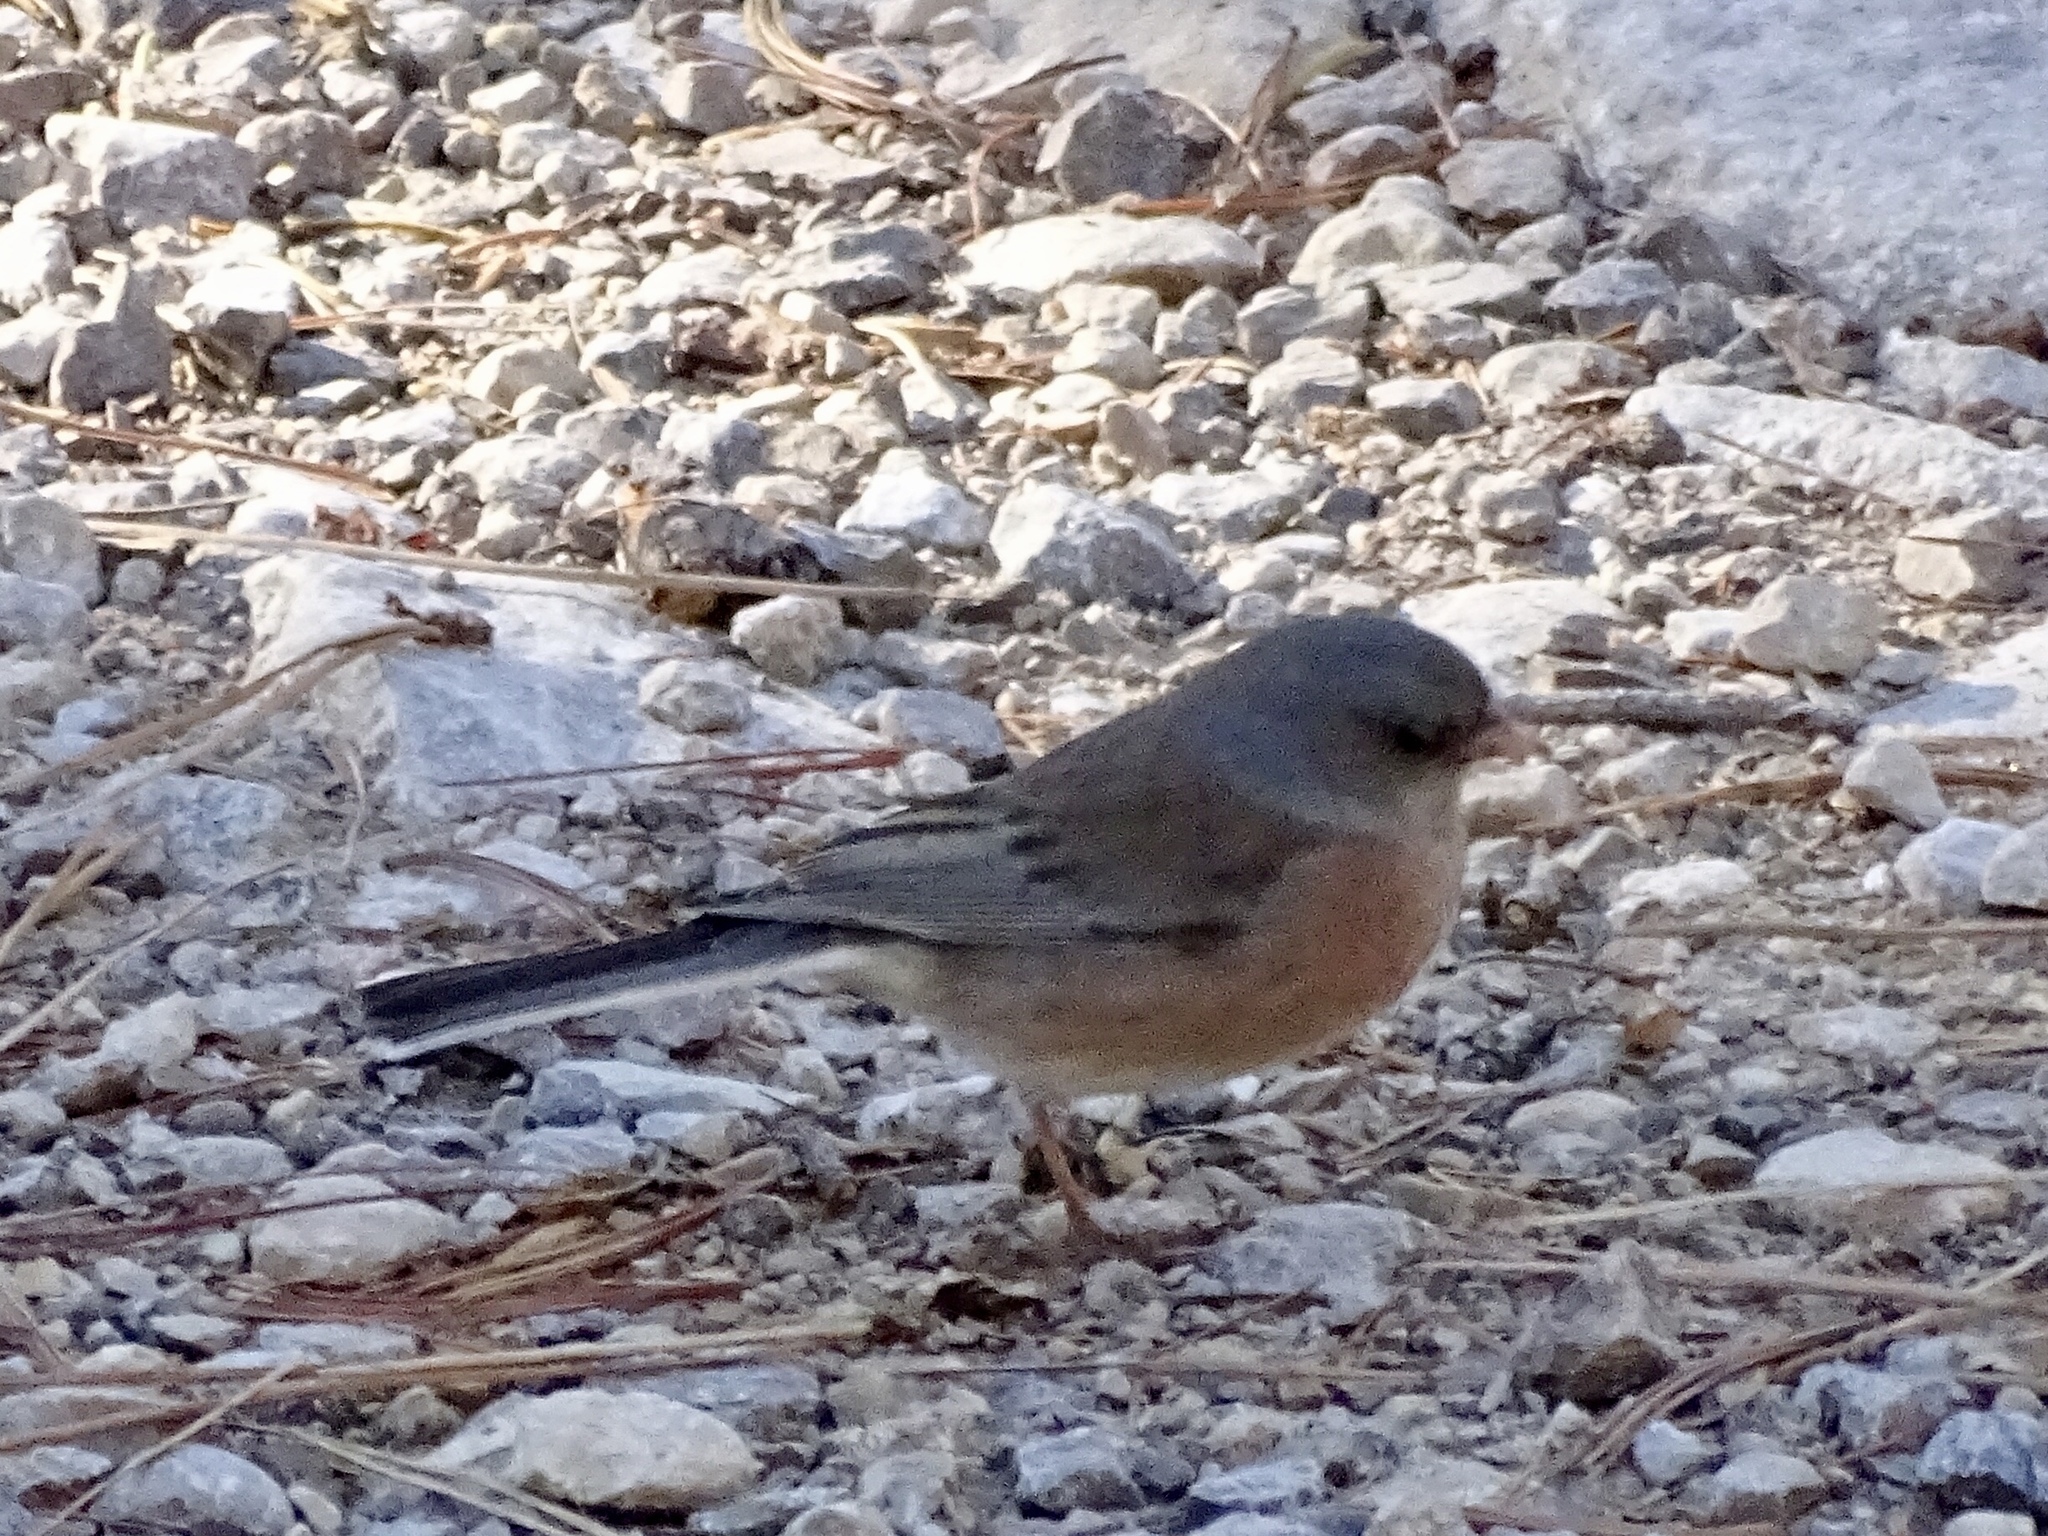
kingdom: Animalia
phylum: Chordata
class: Aves
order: Passeriformes
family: Passerellidae
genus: Junco
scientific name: Junco hyemalis
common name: Dark-eyed junco
